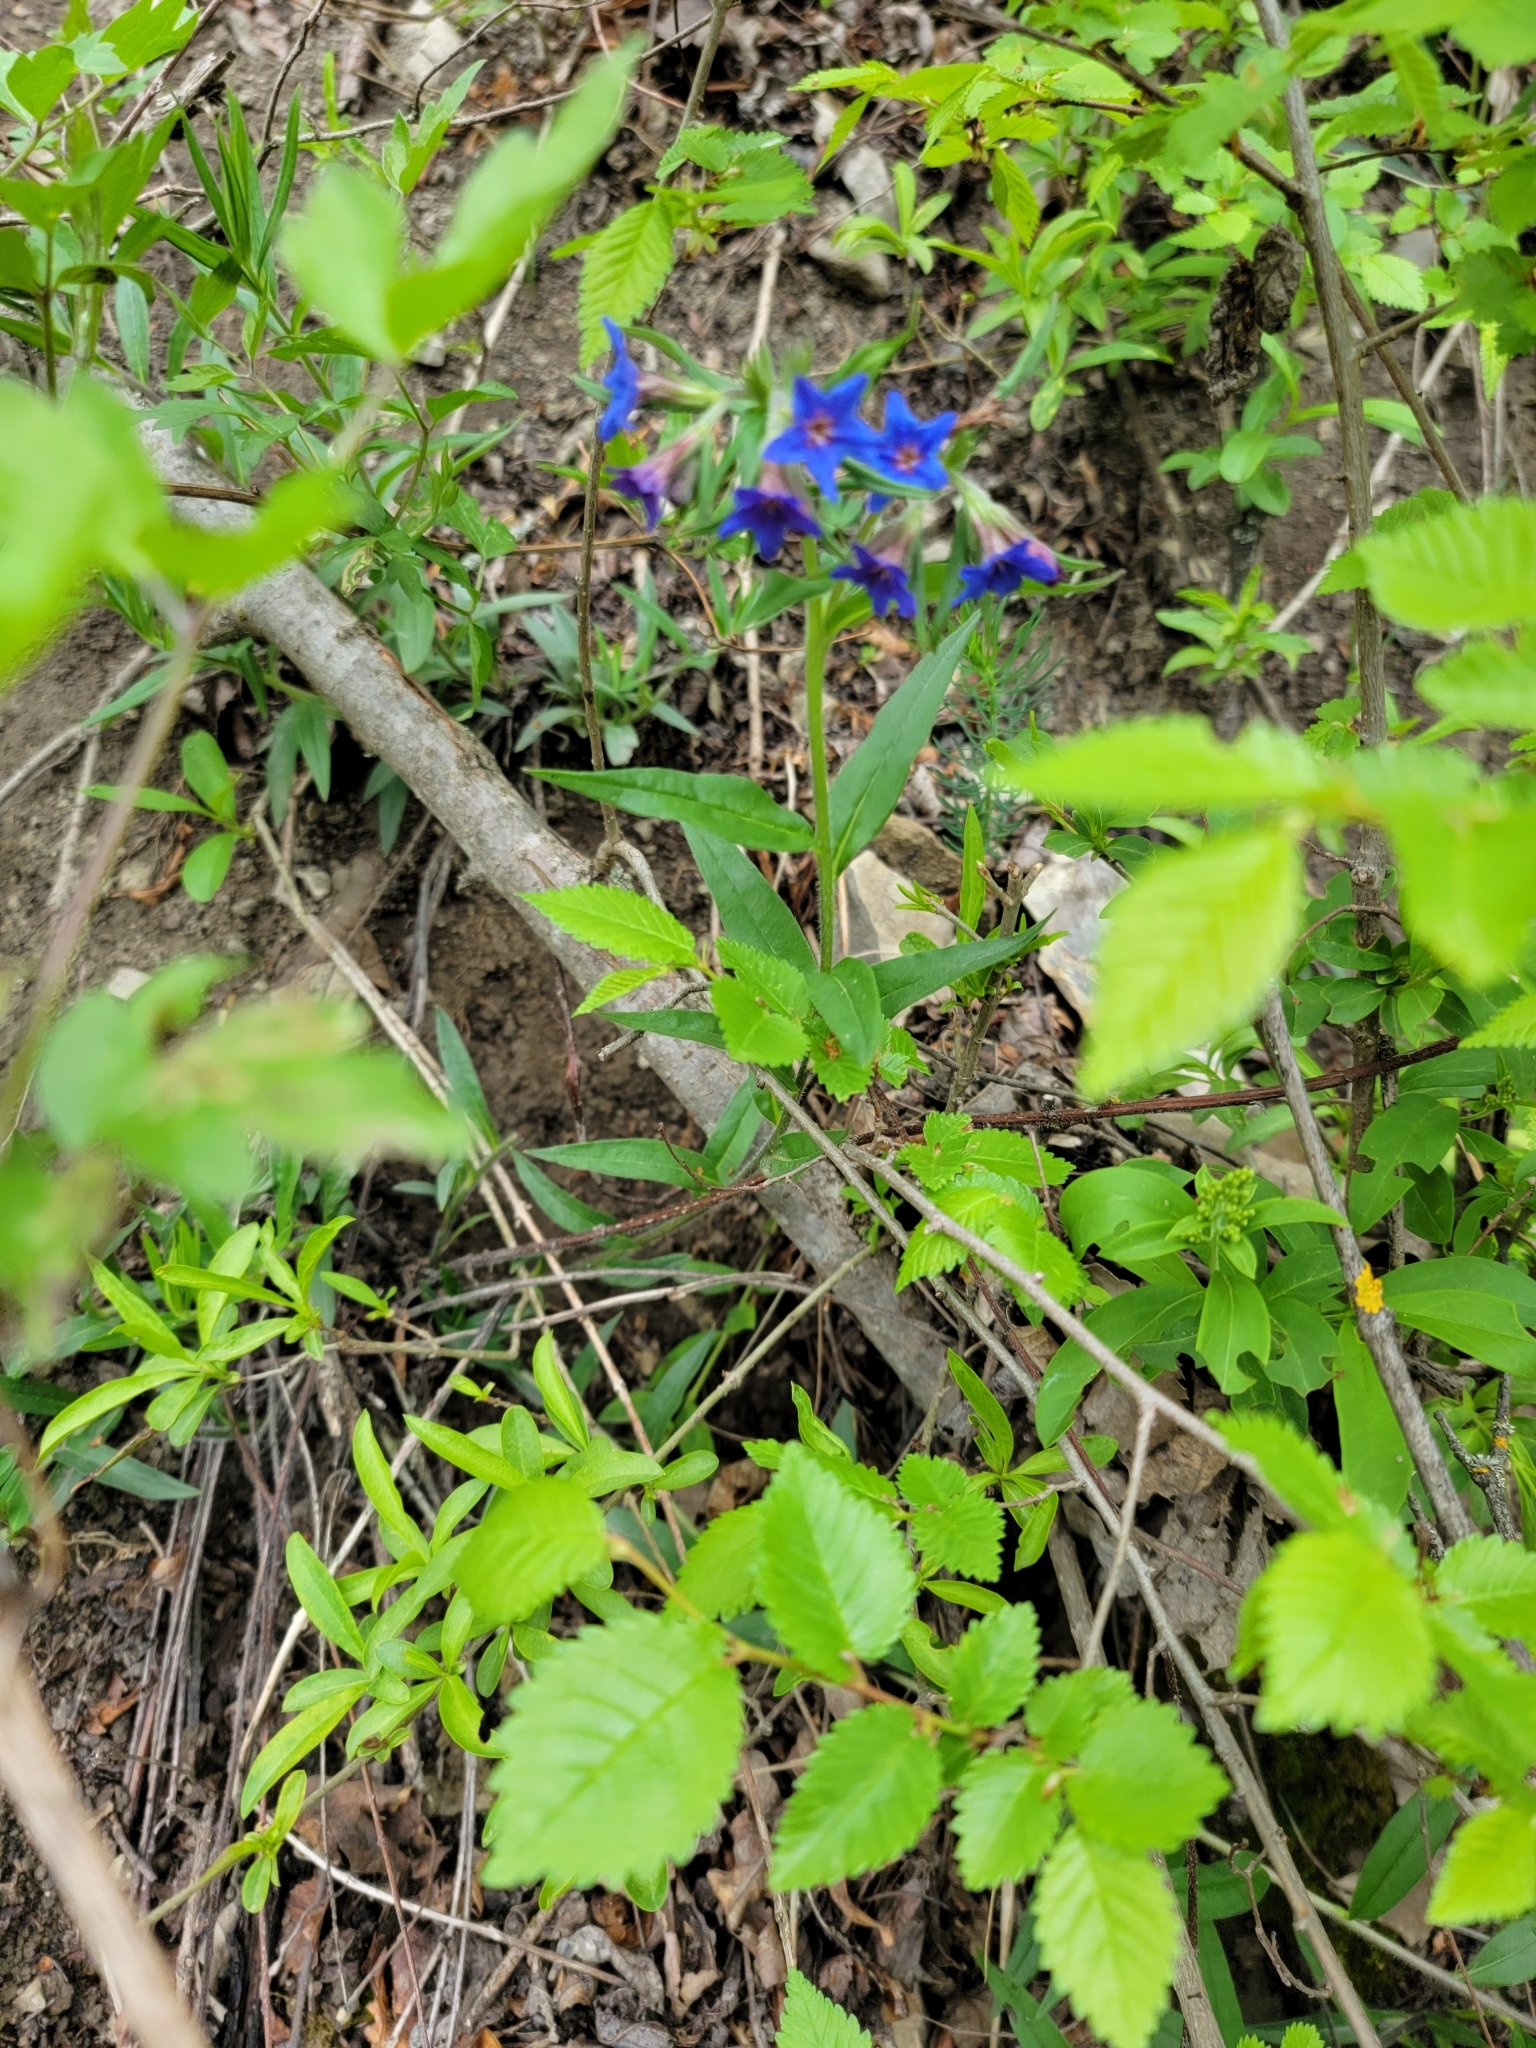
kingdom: Plantae
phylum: Tracheophyta
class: Magnoliopsida
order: Boraginales
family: Boraginaceae
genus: Aegonychon
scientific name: Aegonychon purpurocaeruleum
